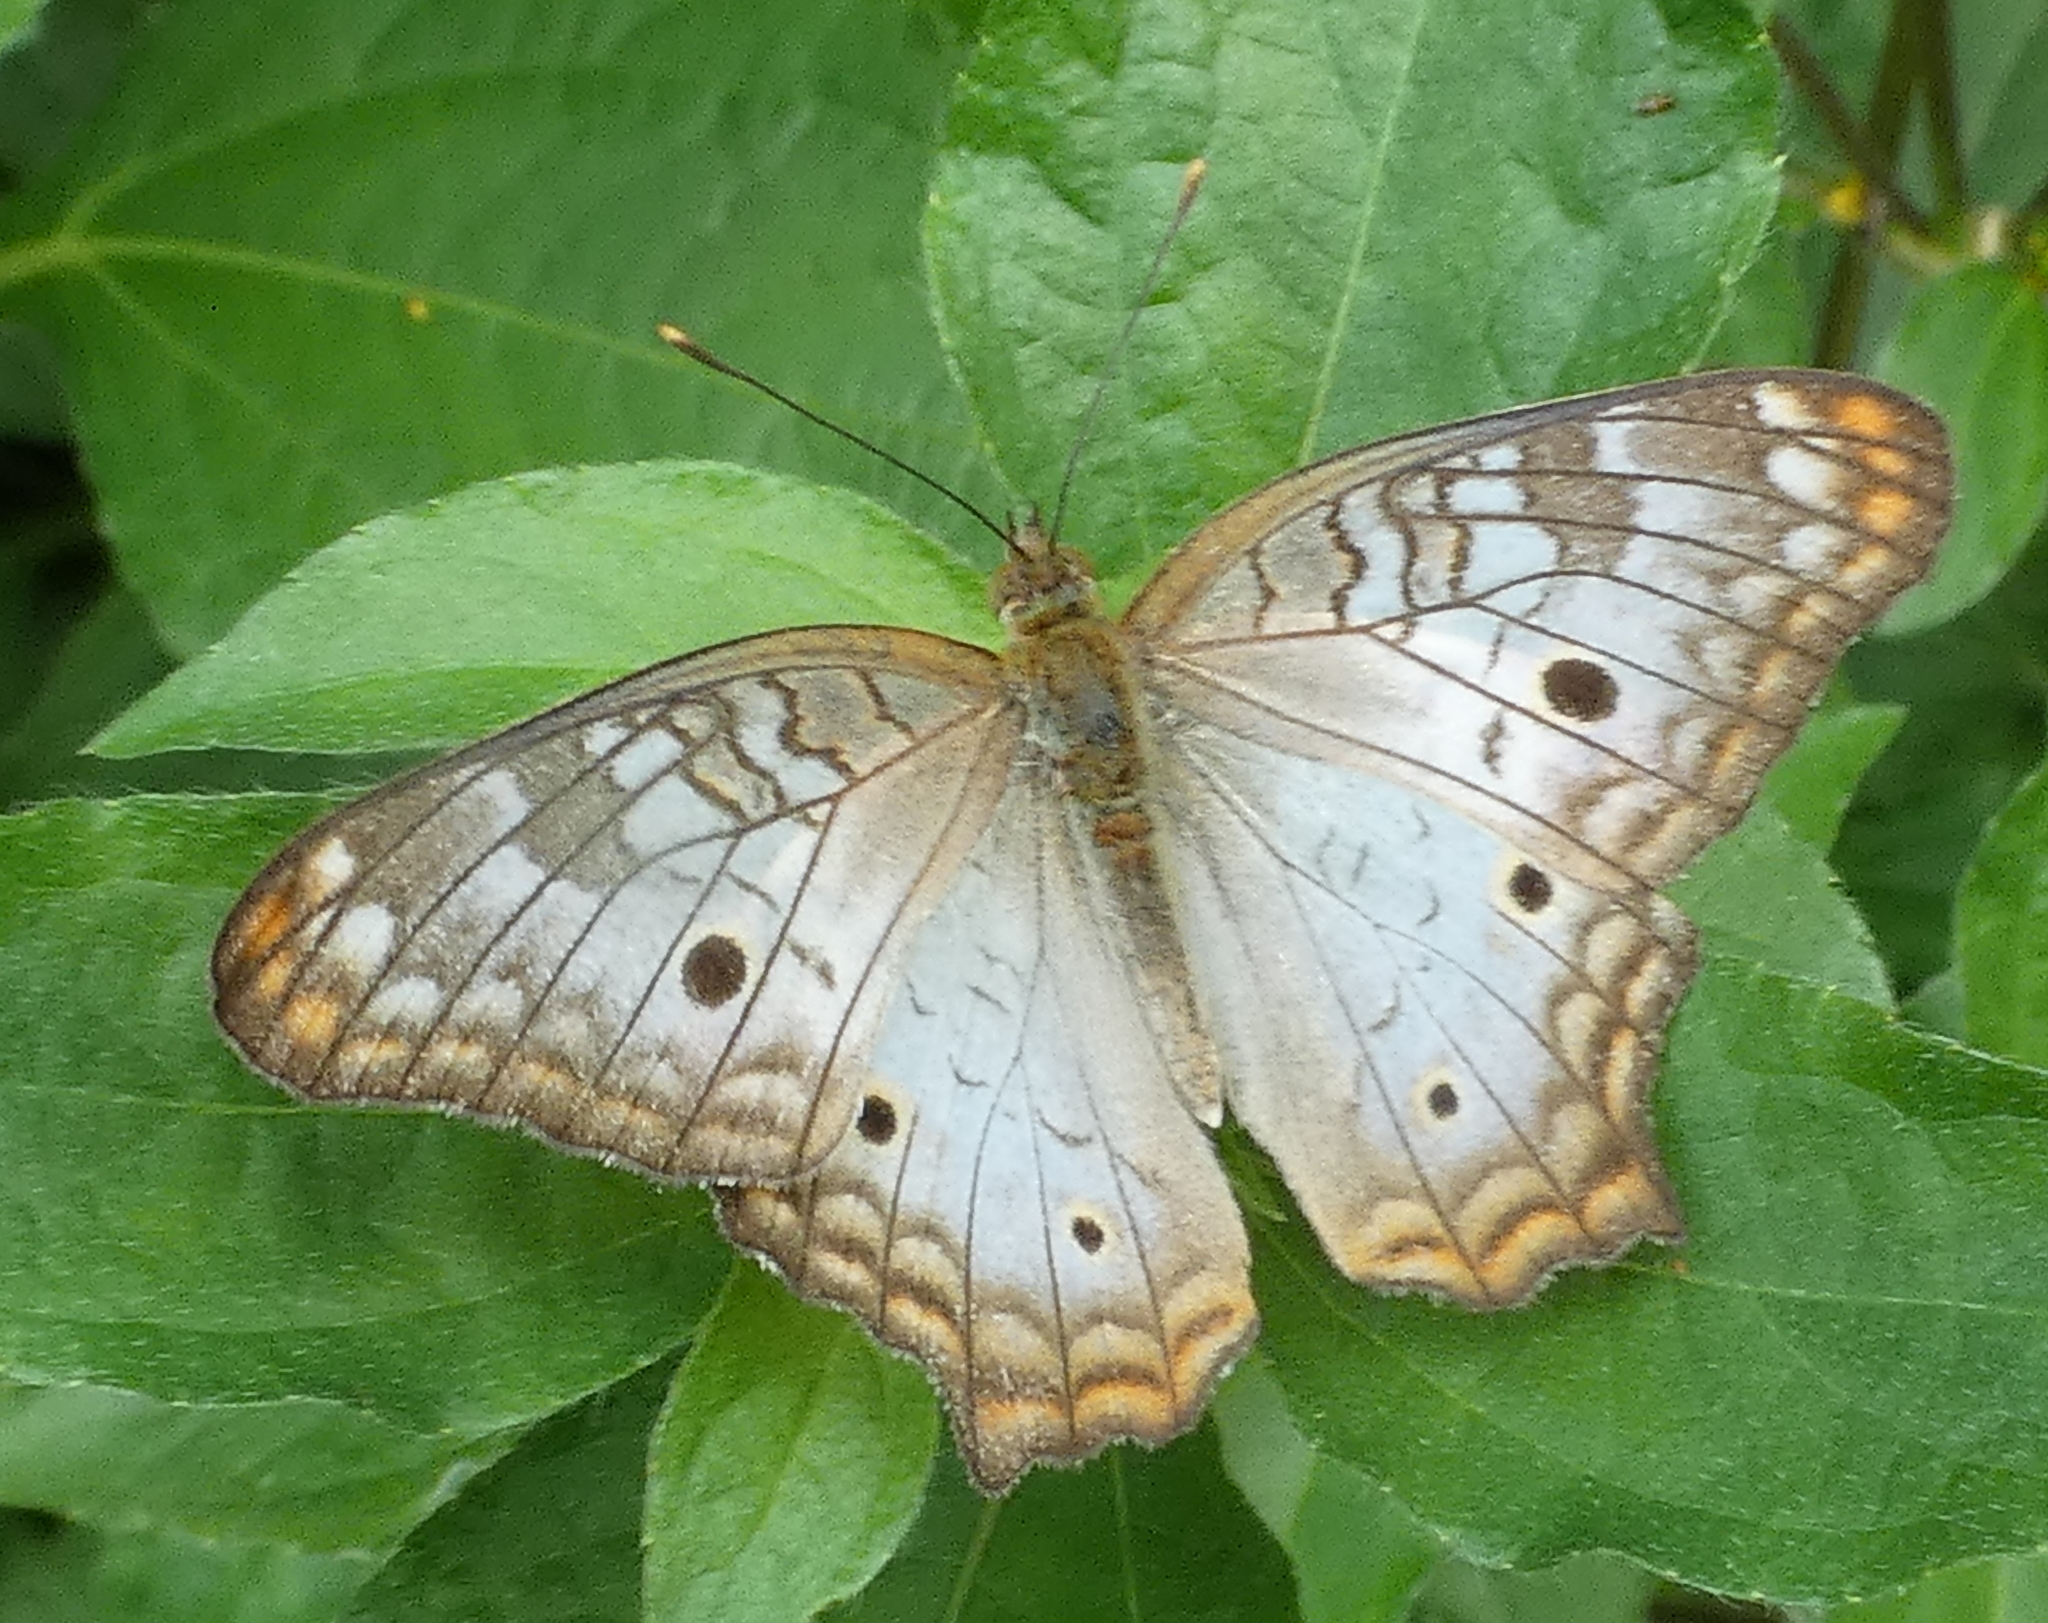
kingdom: Animalia
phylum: Arthropoda
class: Insecta
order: Lepidoptera
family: Nymphalidae
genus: Anartia
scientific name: Anartia jatrophae
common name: White peacock
